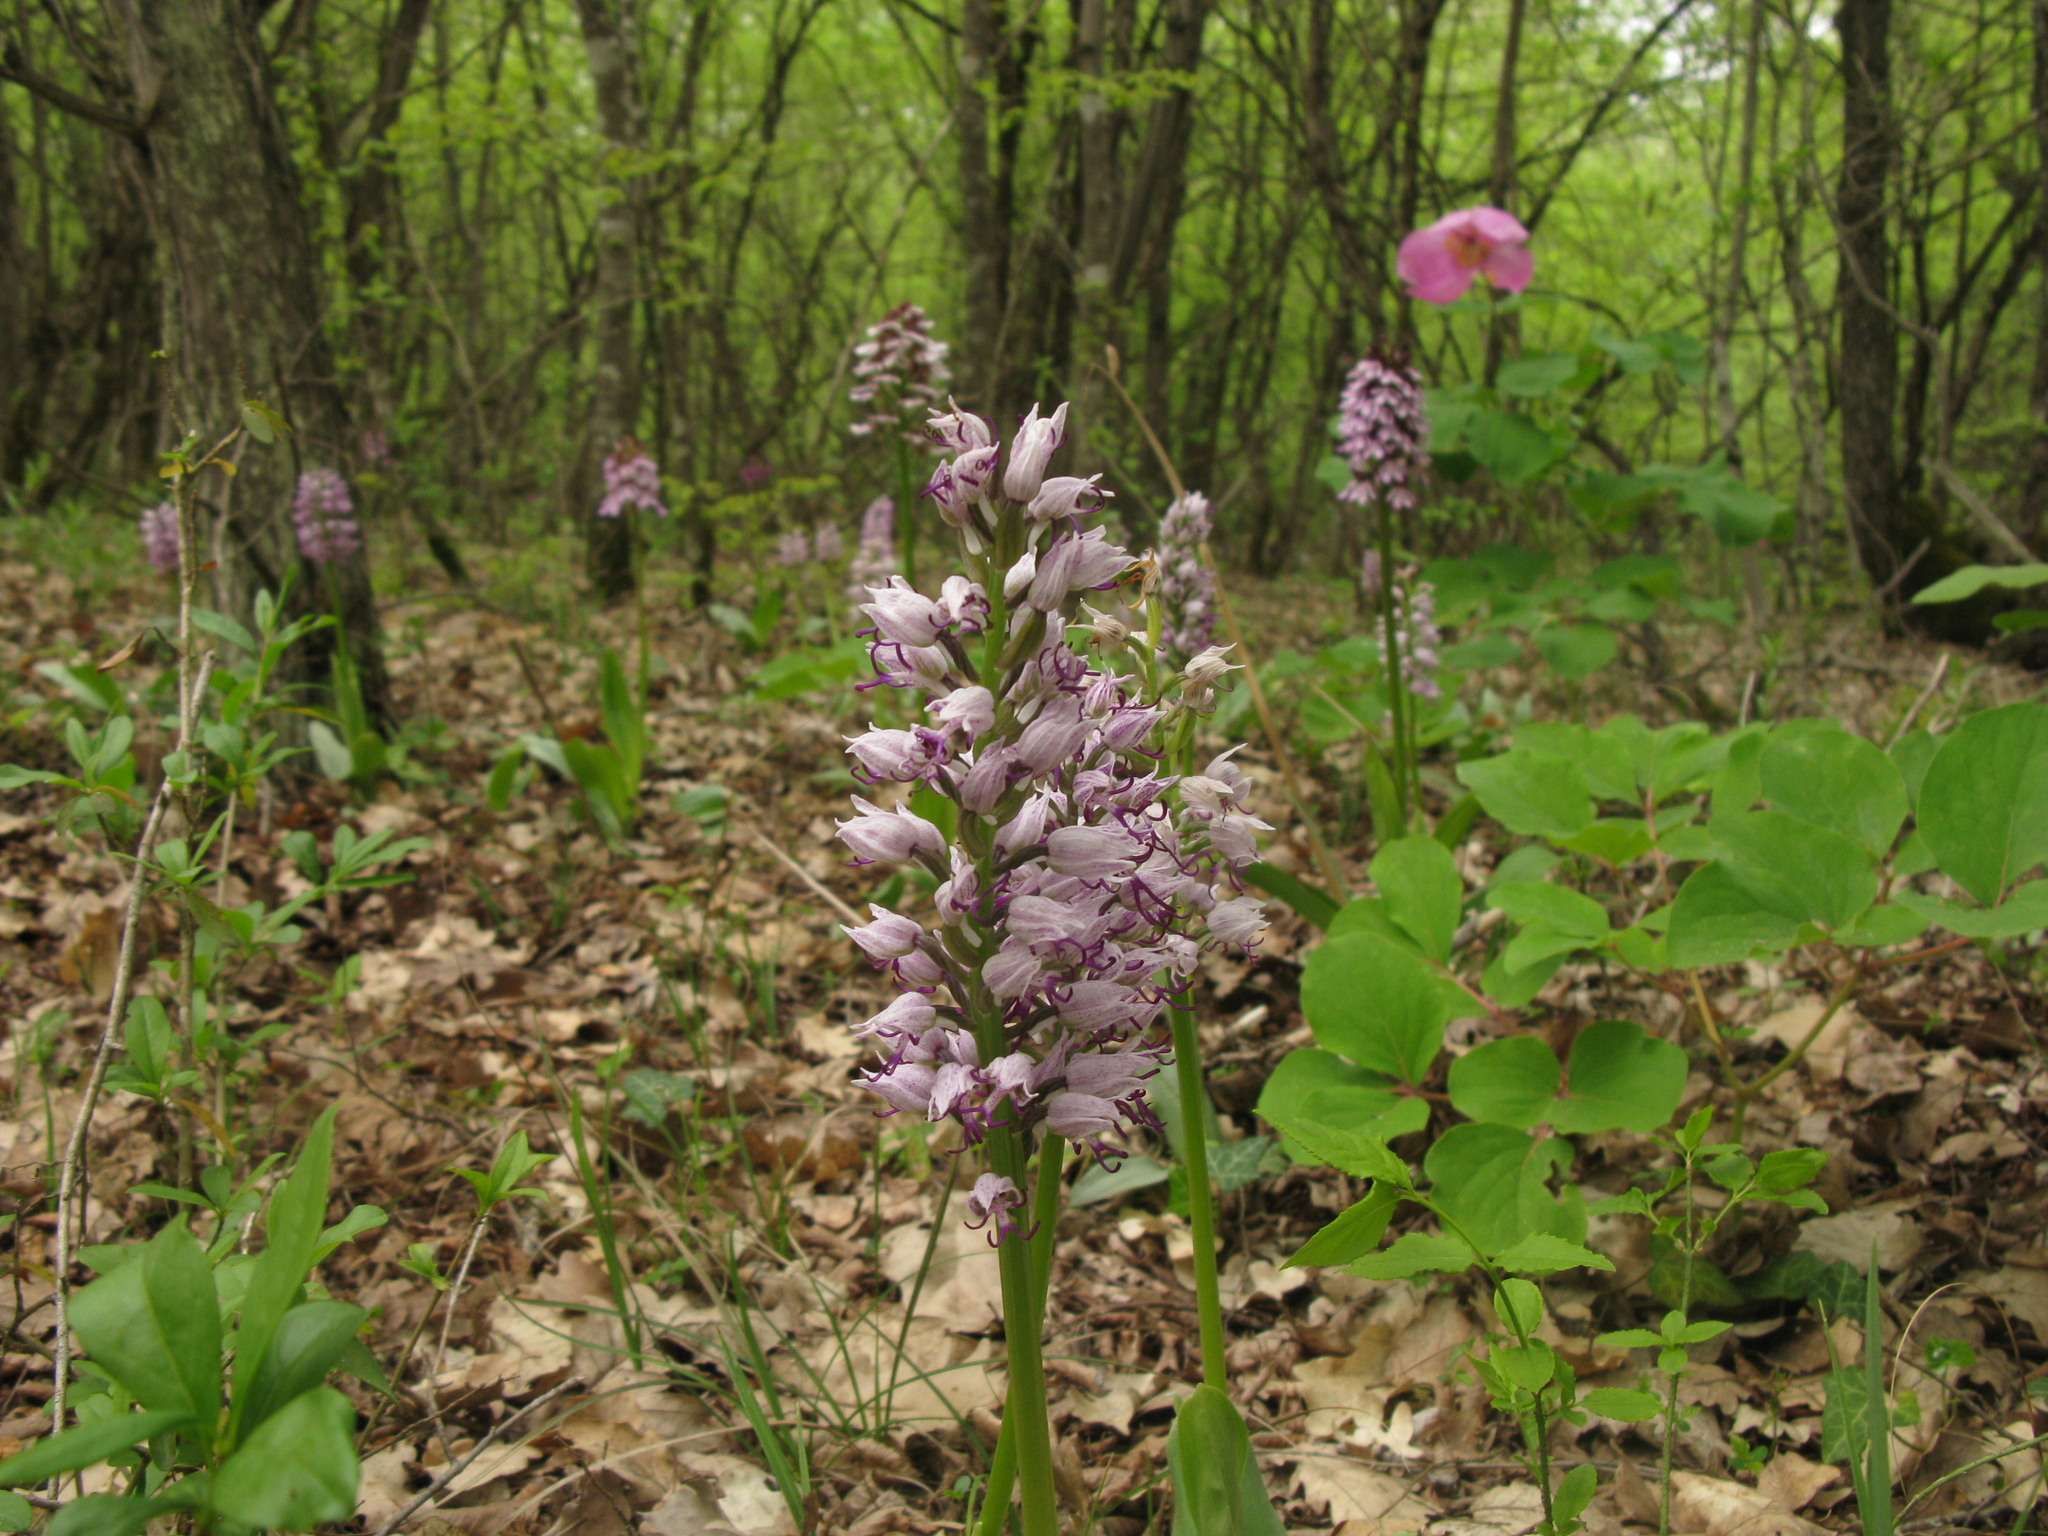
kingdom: Plantae
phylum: Tracheophyta
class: Liliopsida
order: Asparagales
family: Orchidaceae
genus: Orchis
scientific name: Orchis simia
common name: Monkey orchid
